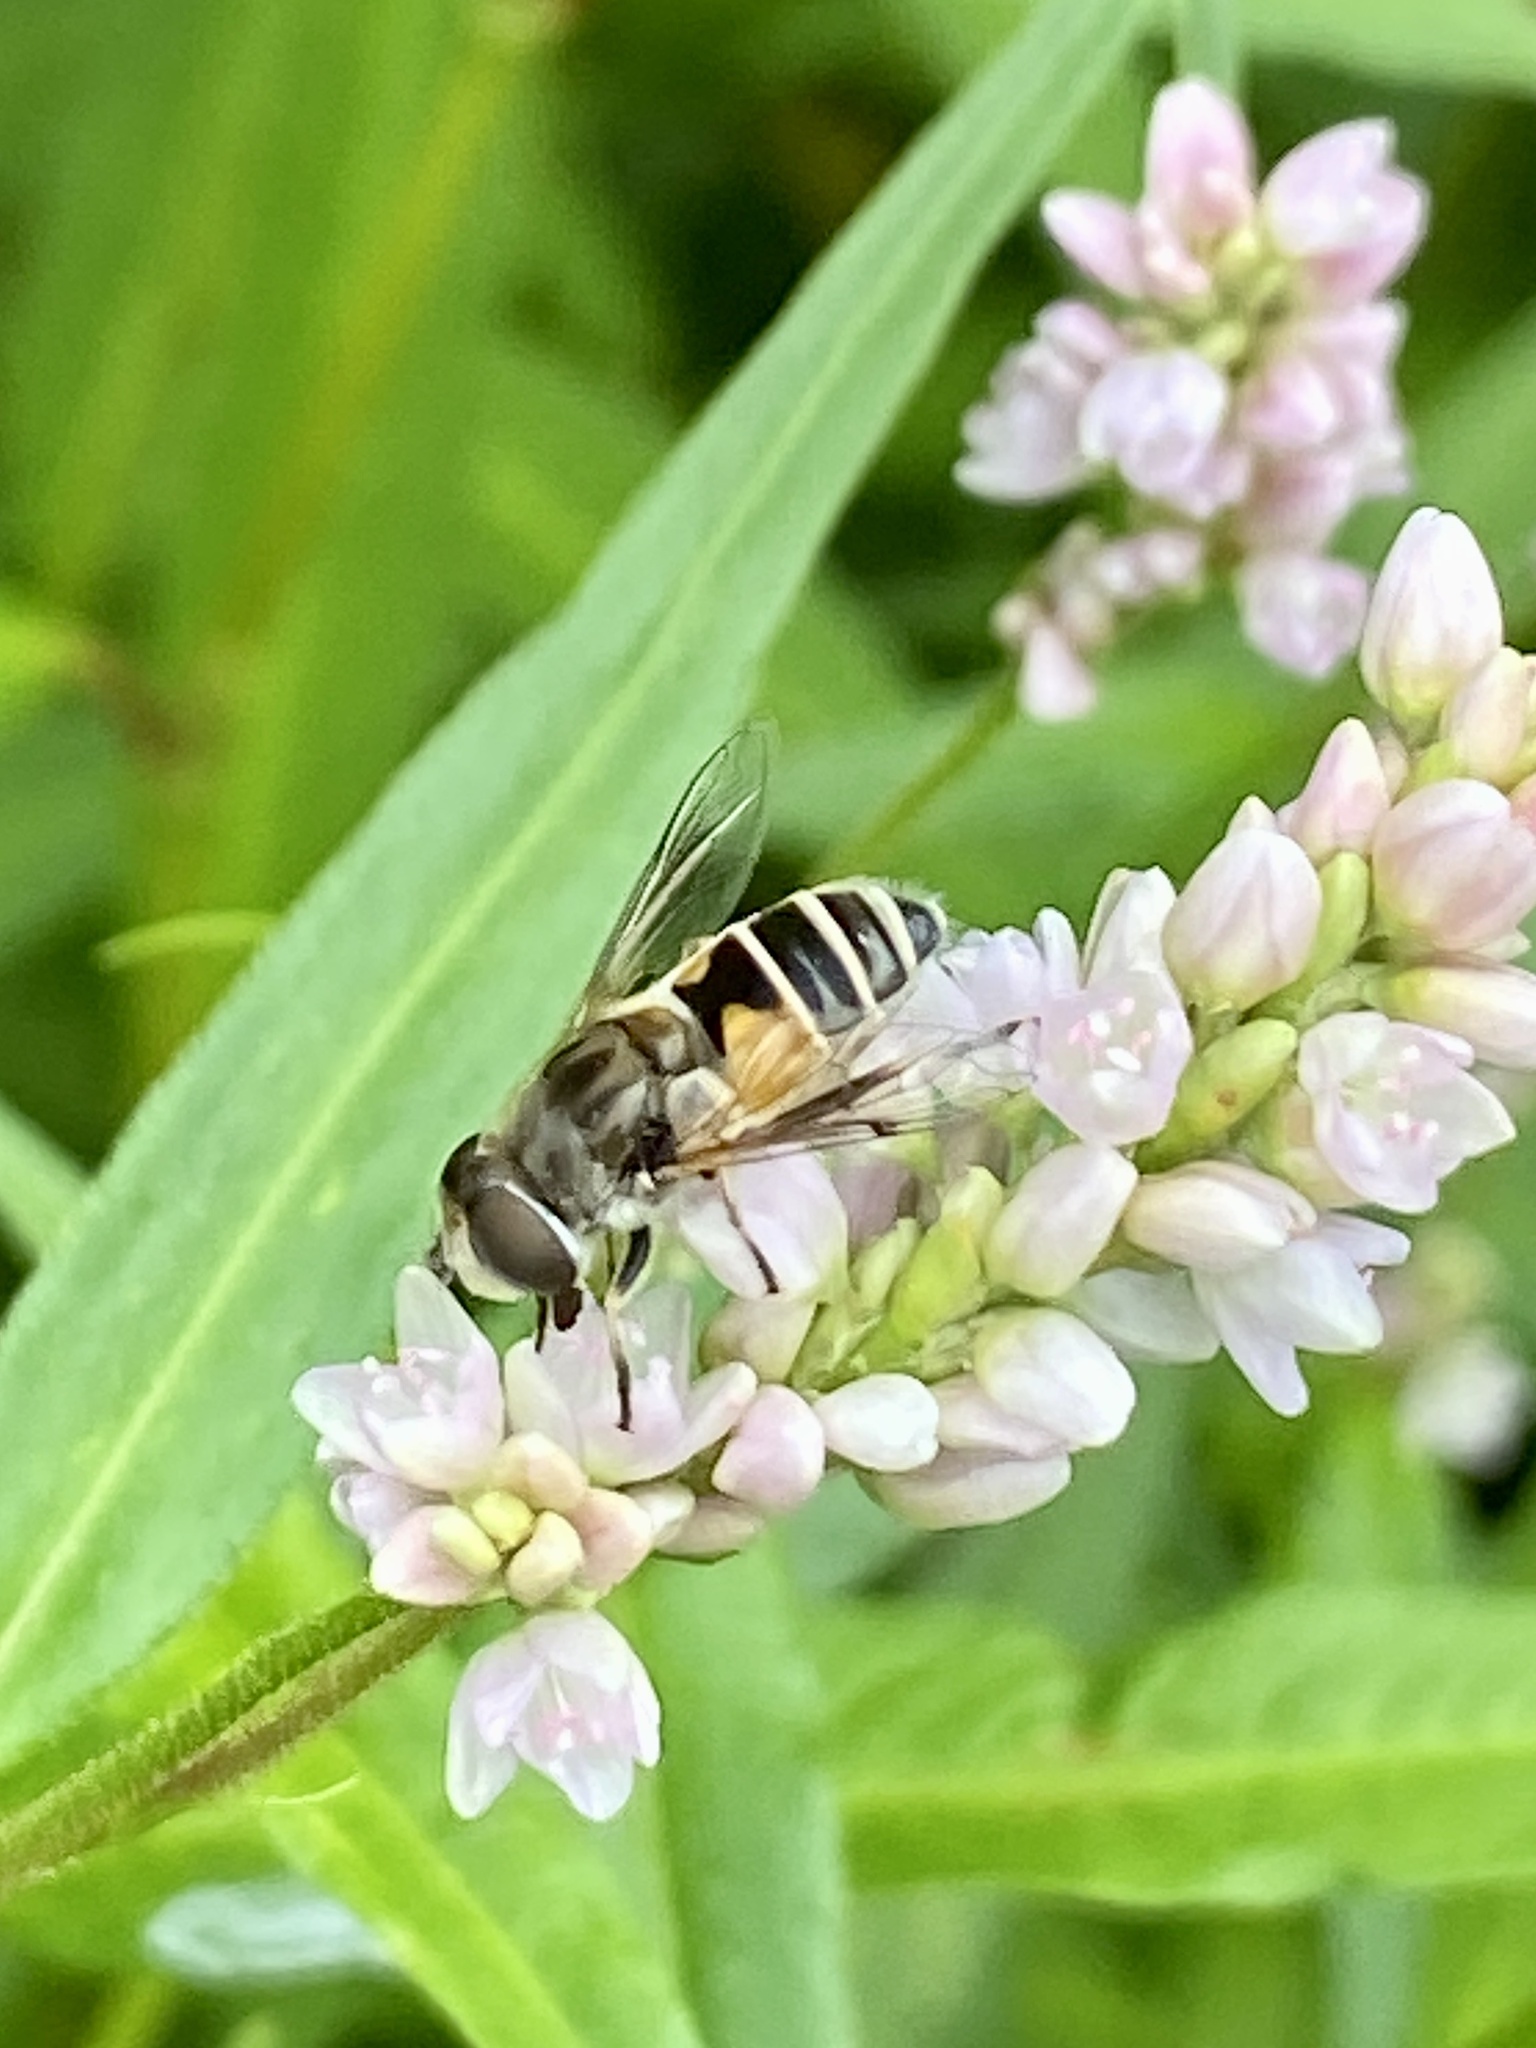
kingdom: Animalia
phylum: Arthropoda
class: Insecta
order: Diptera
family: Syrphidae
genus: Eristalis
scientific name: Eristalis arbustorum
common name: Hover fly
